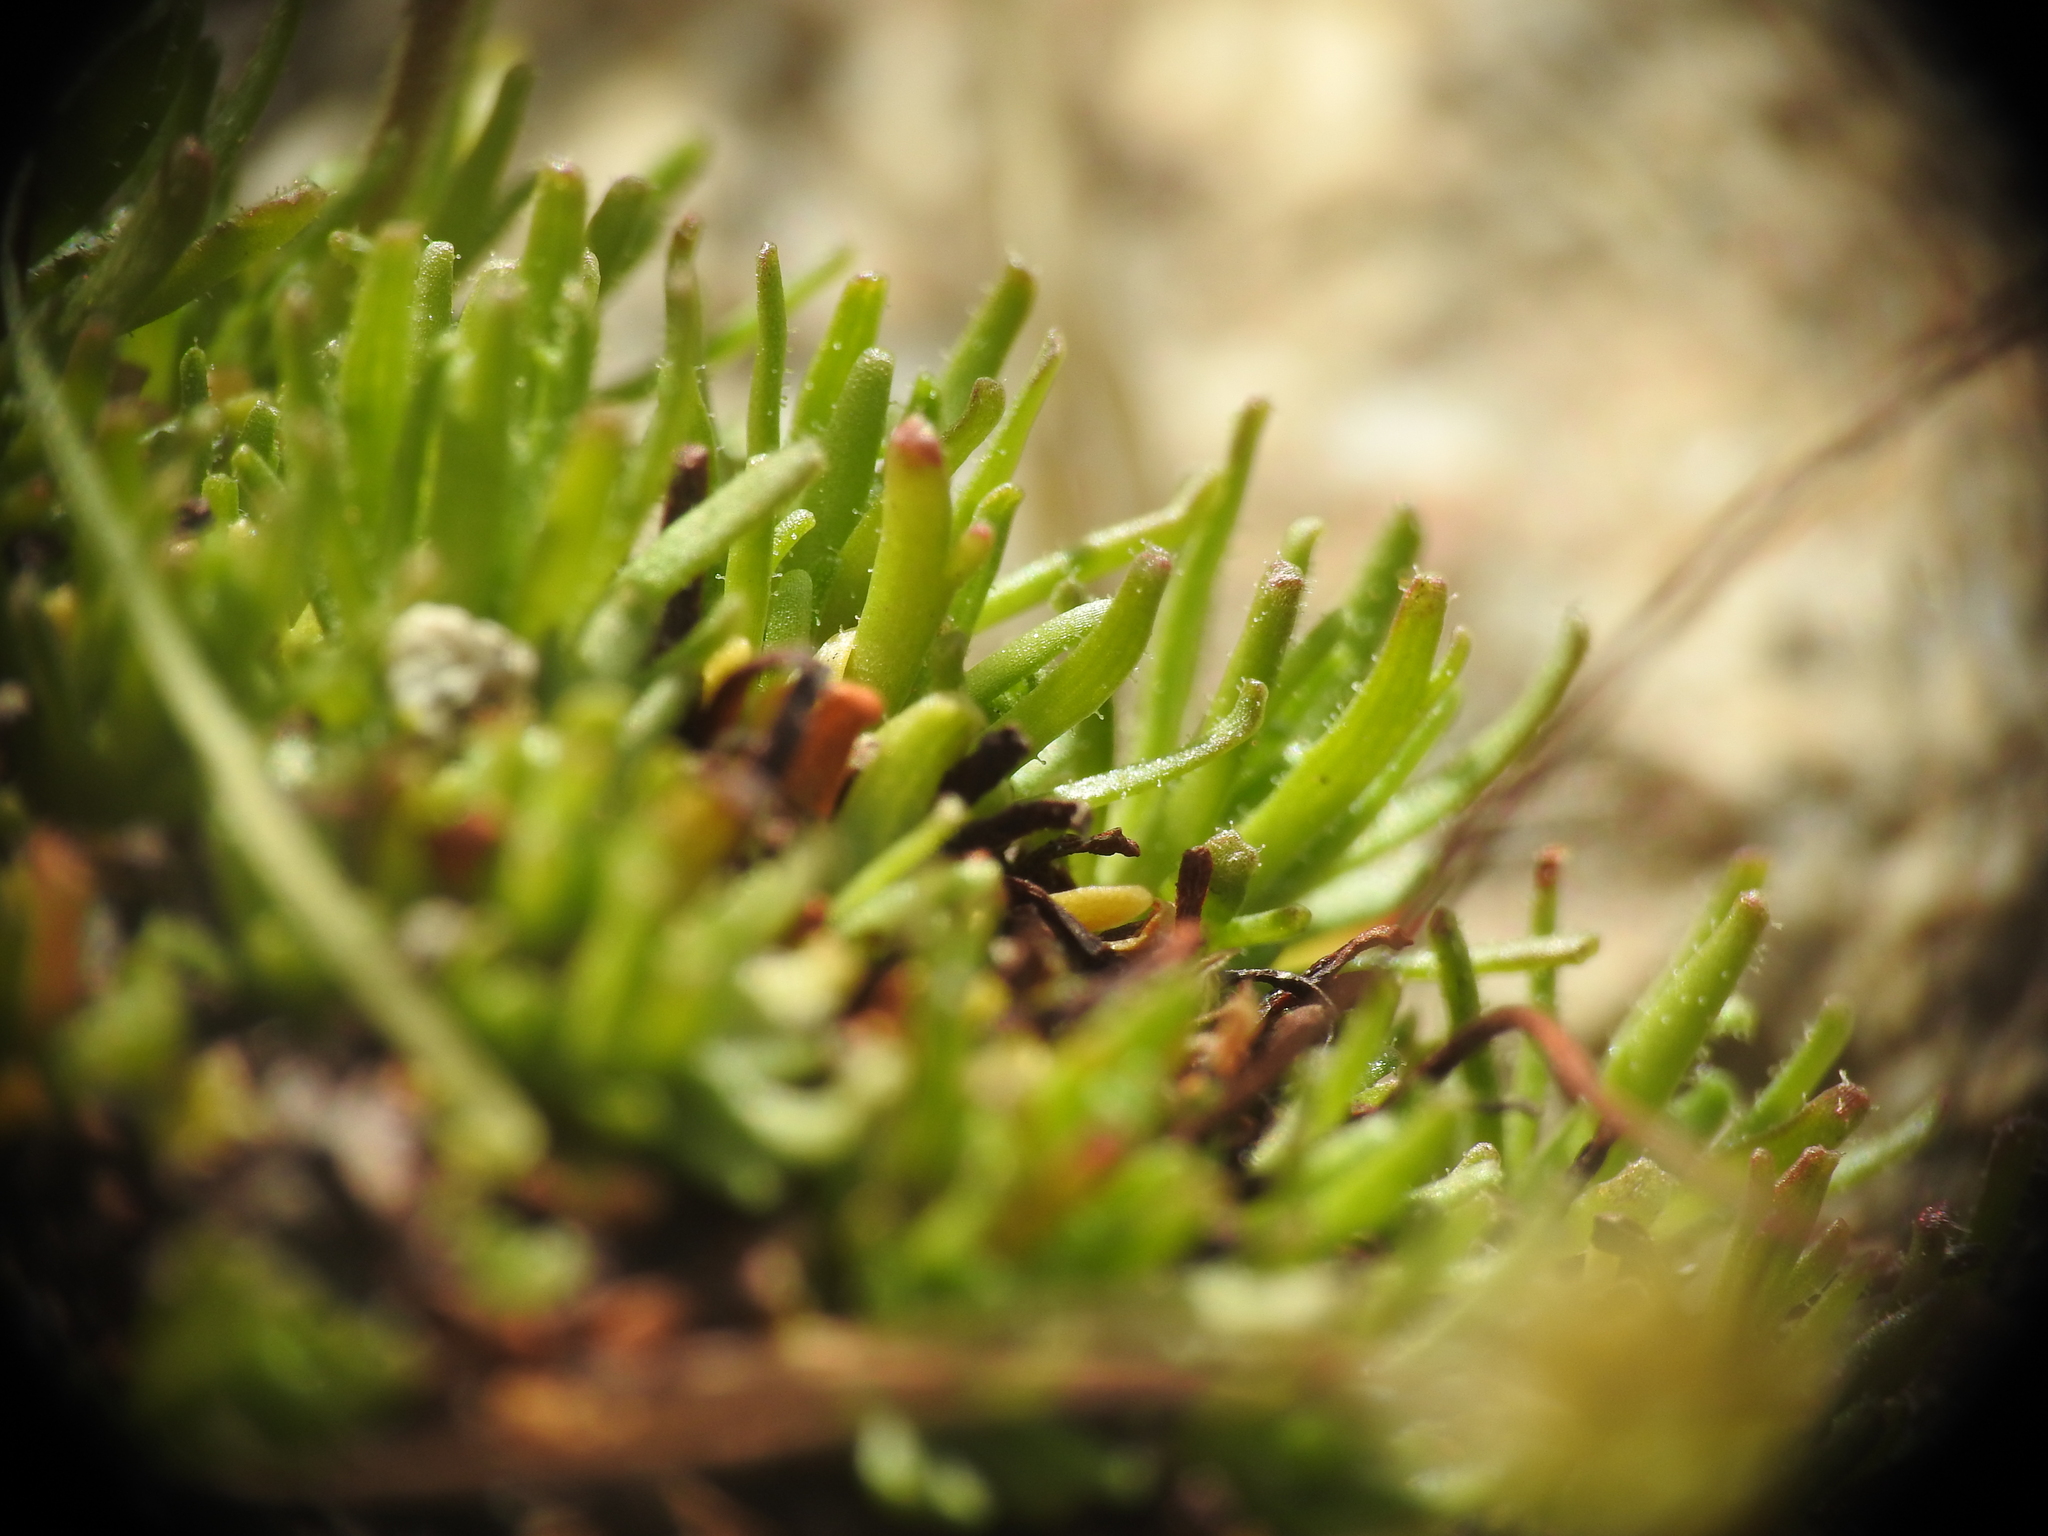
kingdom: Plantae
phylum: Tracheophyta
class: Magnoliopsida
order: Saxifragales
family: Saxifragaceae
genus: Saxifraga
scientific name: Saxifraga moschata
